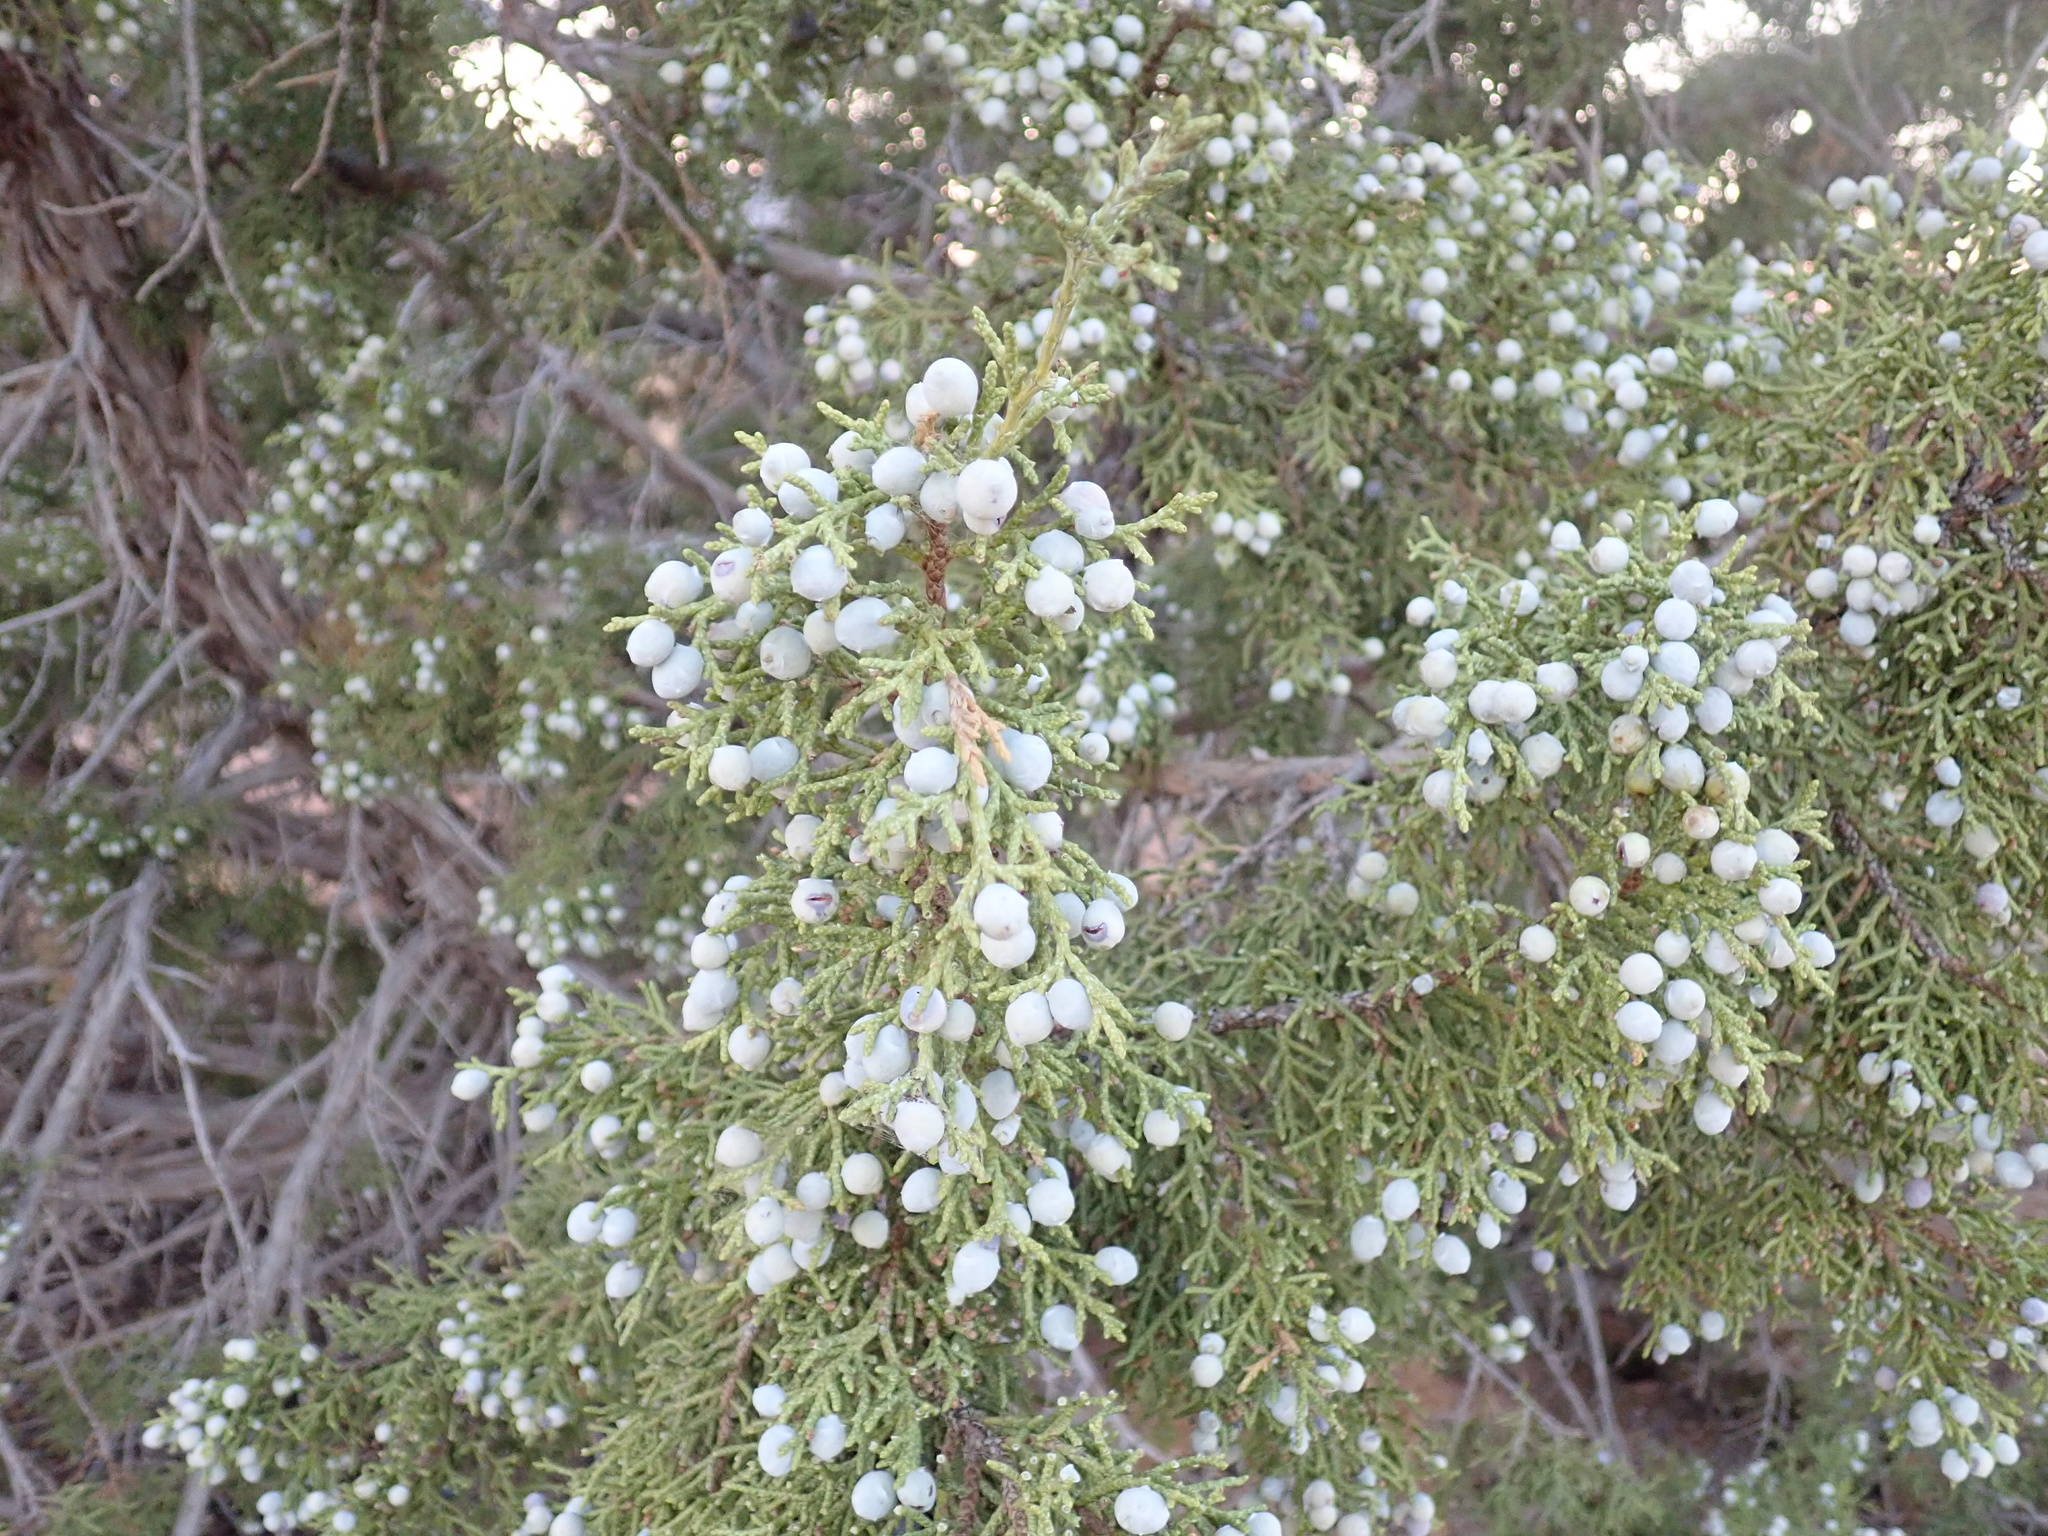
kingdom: Plantae
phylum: Tracheophyta
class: Pinopsida
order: Pinales
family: Cupressaceae
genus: Juniperus
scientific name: Juniperus osteosperma
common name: Utah juniper
